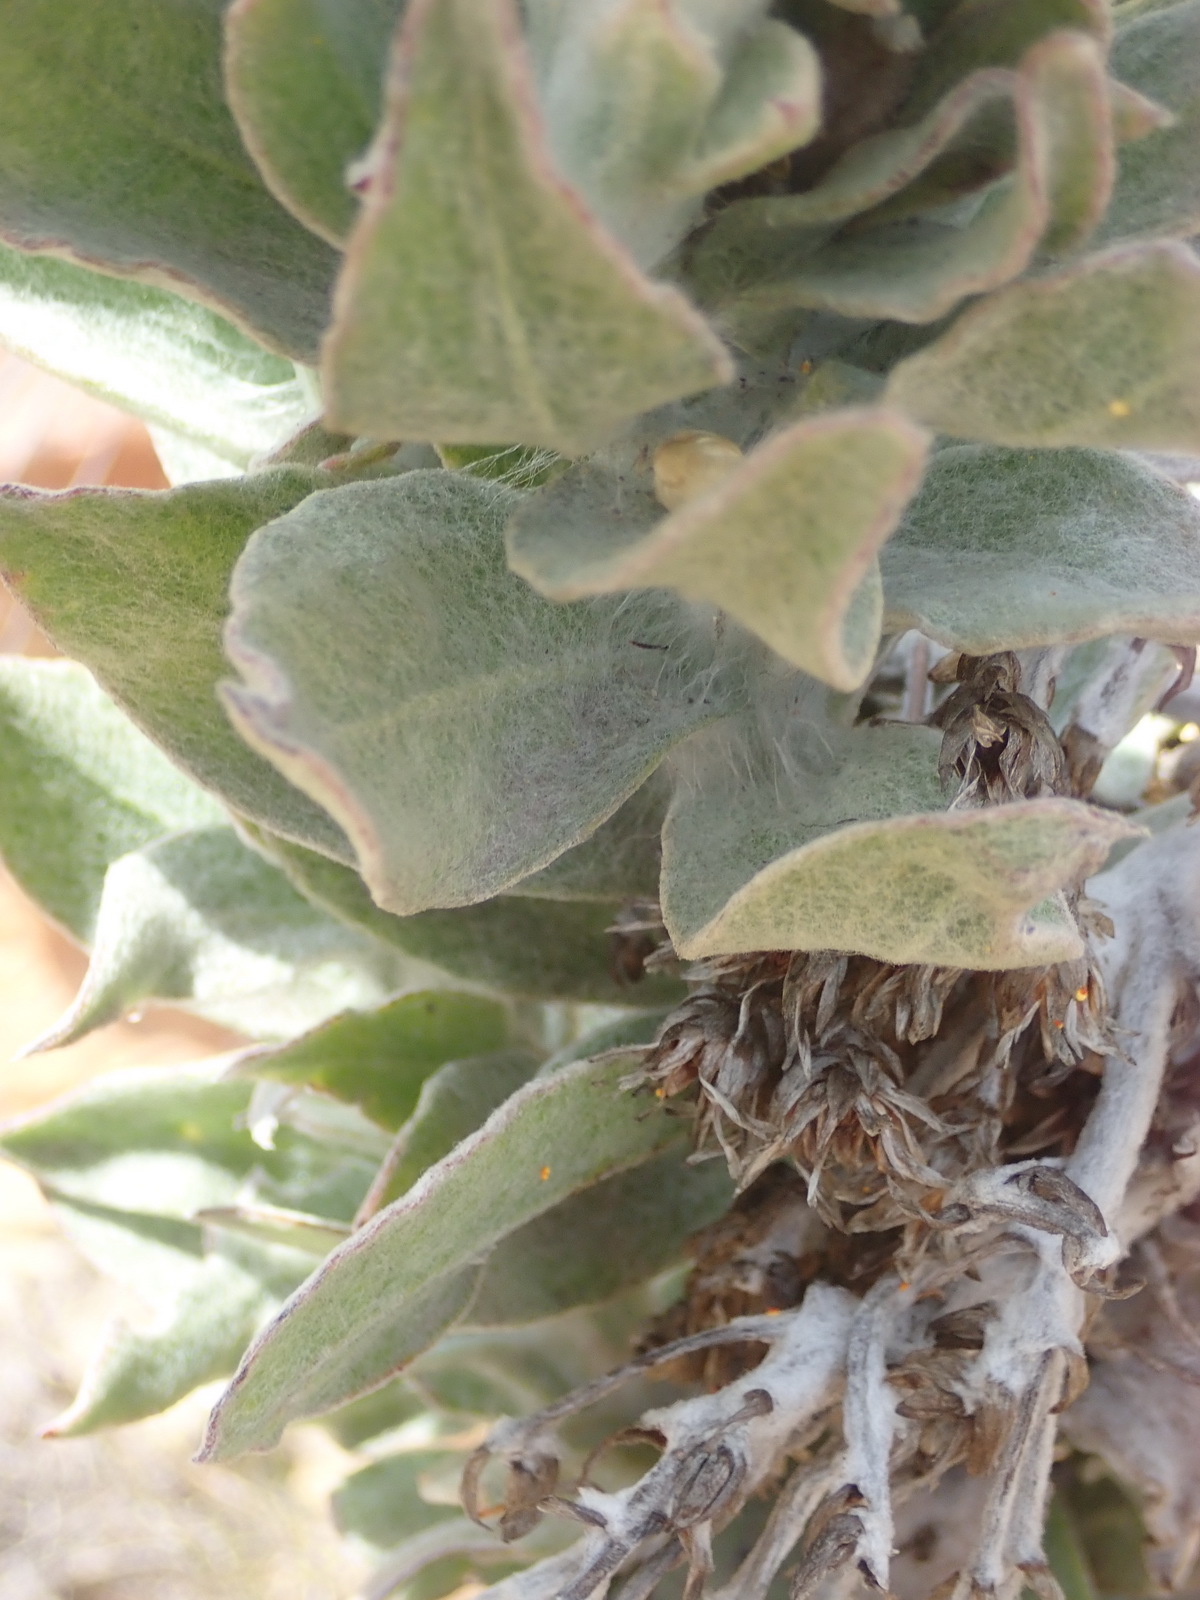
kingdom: Plantae
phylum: Tracheophyta
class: Magnoliopsida
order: Asterales
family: Asteraceae
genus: Syncarpha
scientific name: Syncarpha milleflora
